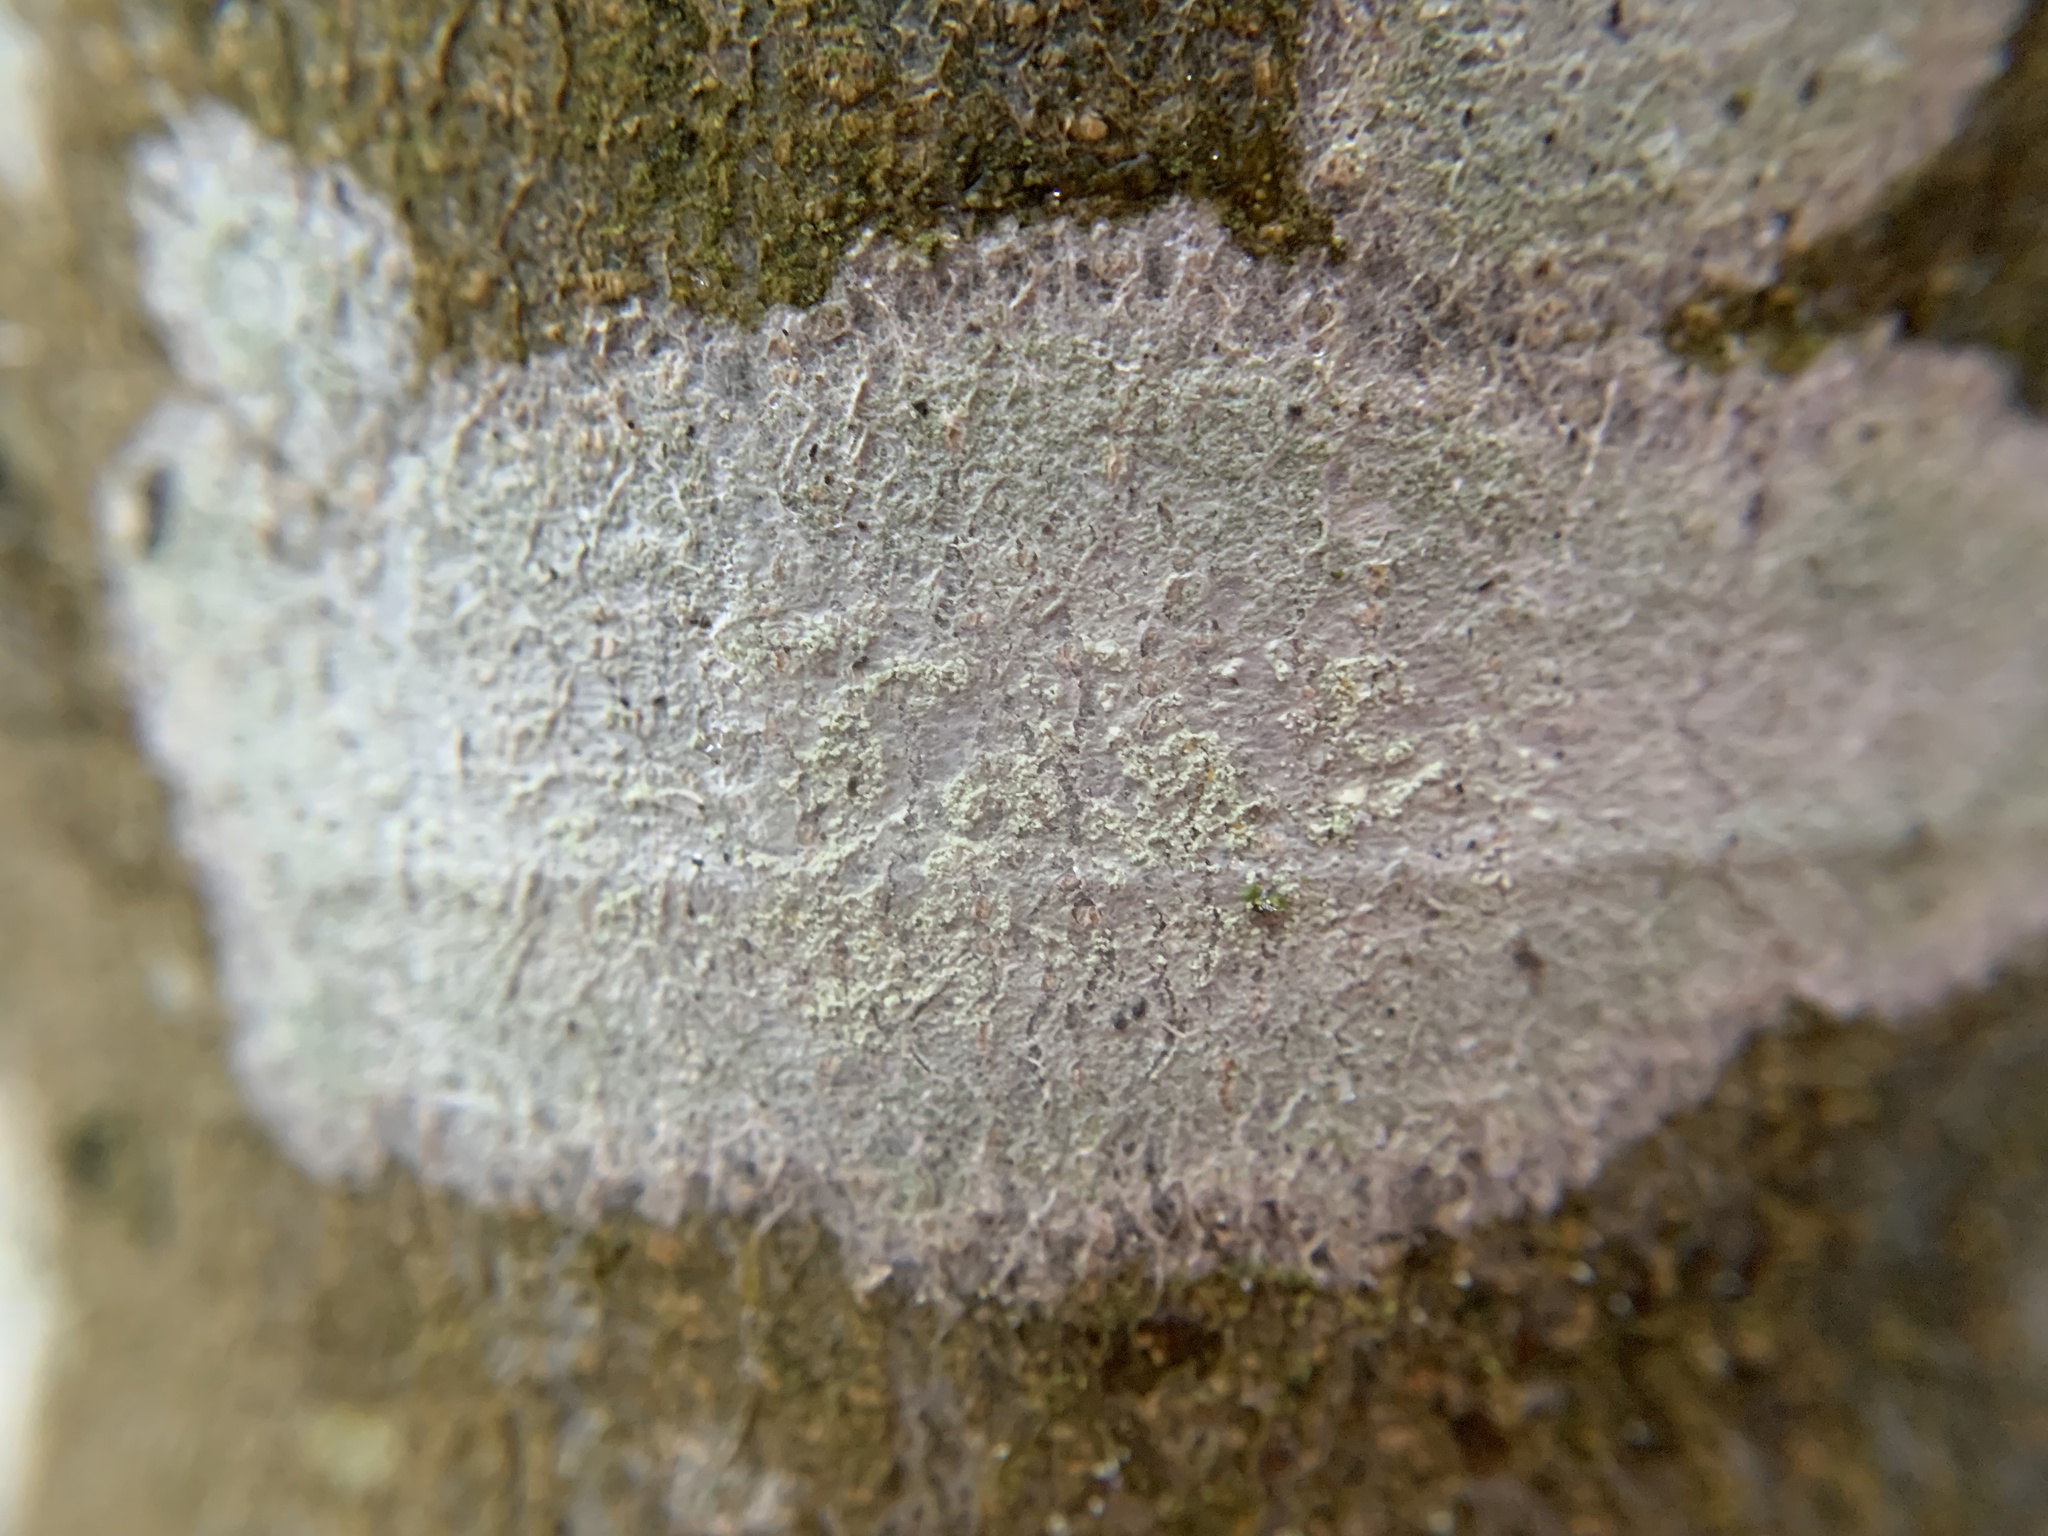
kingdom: Fungi
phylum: Ascomycota
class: Lecanoromycetes
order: Ostropales
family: Phlyctidaceae
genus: Phlyctis
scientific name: Phlyctis argena
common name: Whitewash lichen
